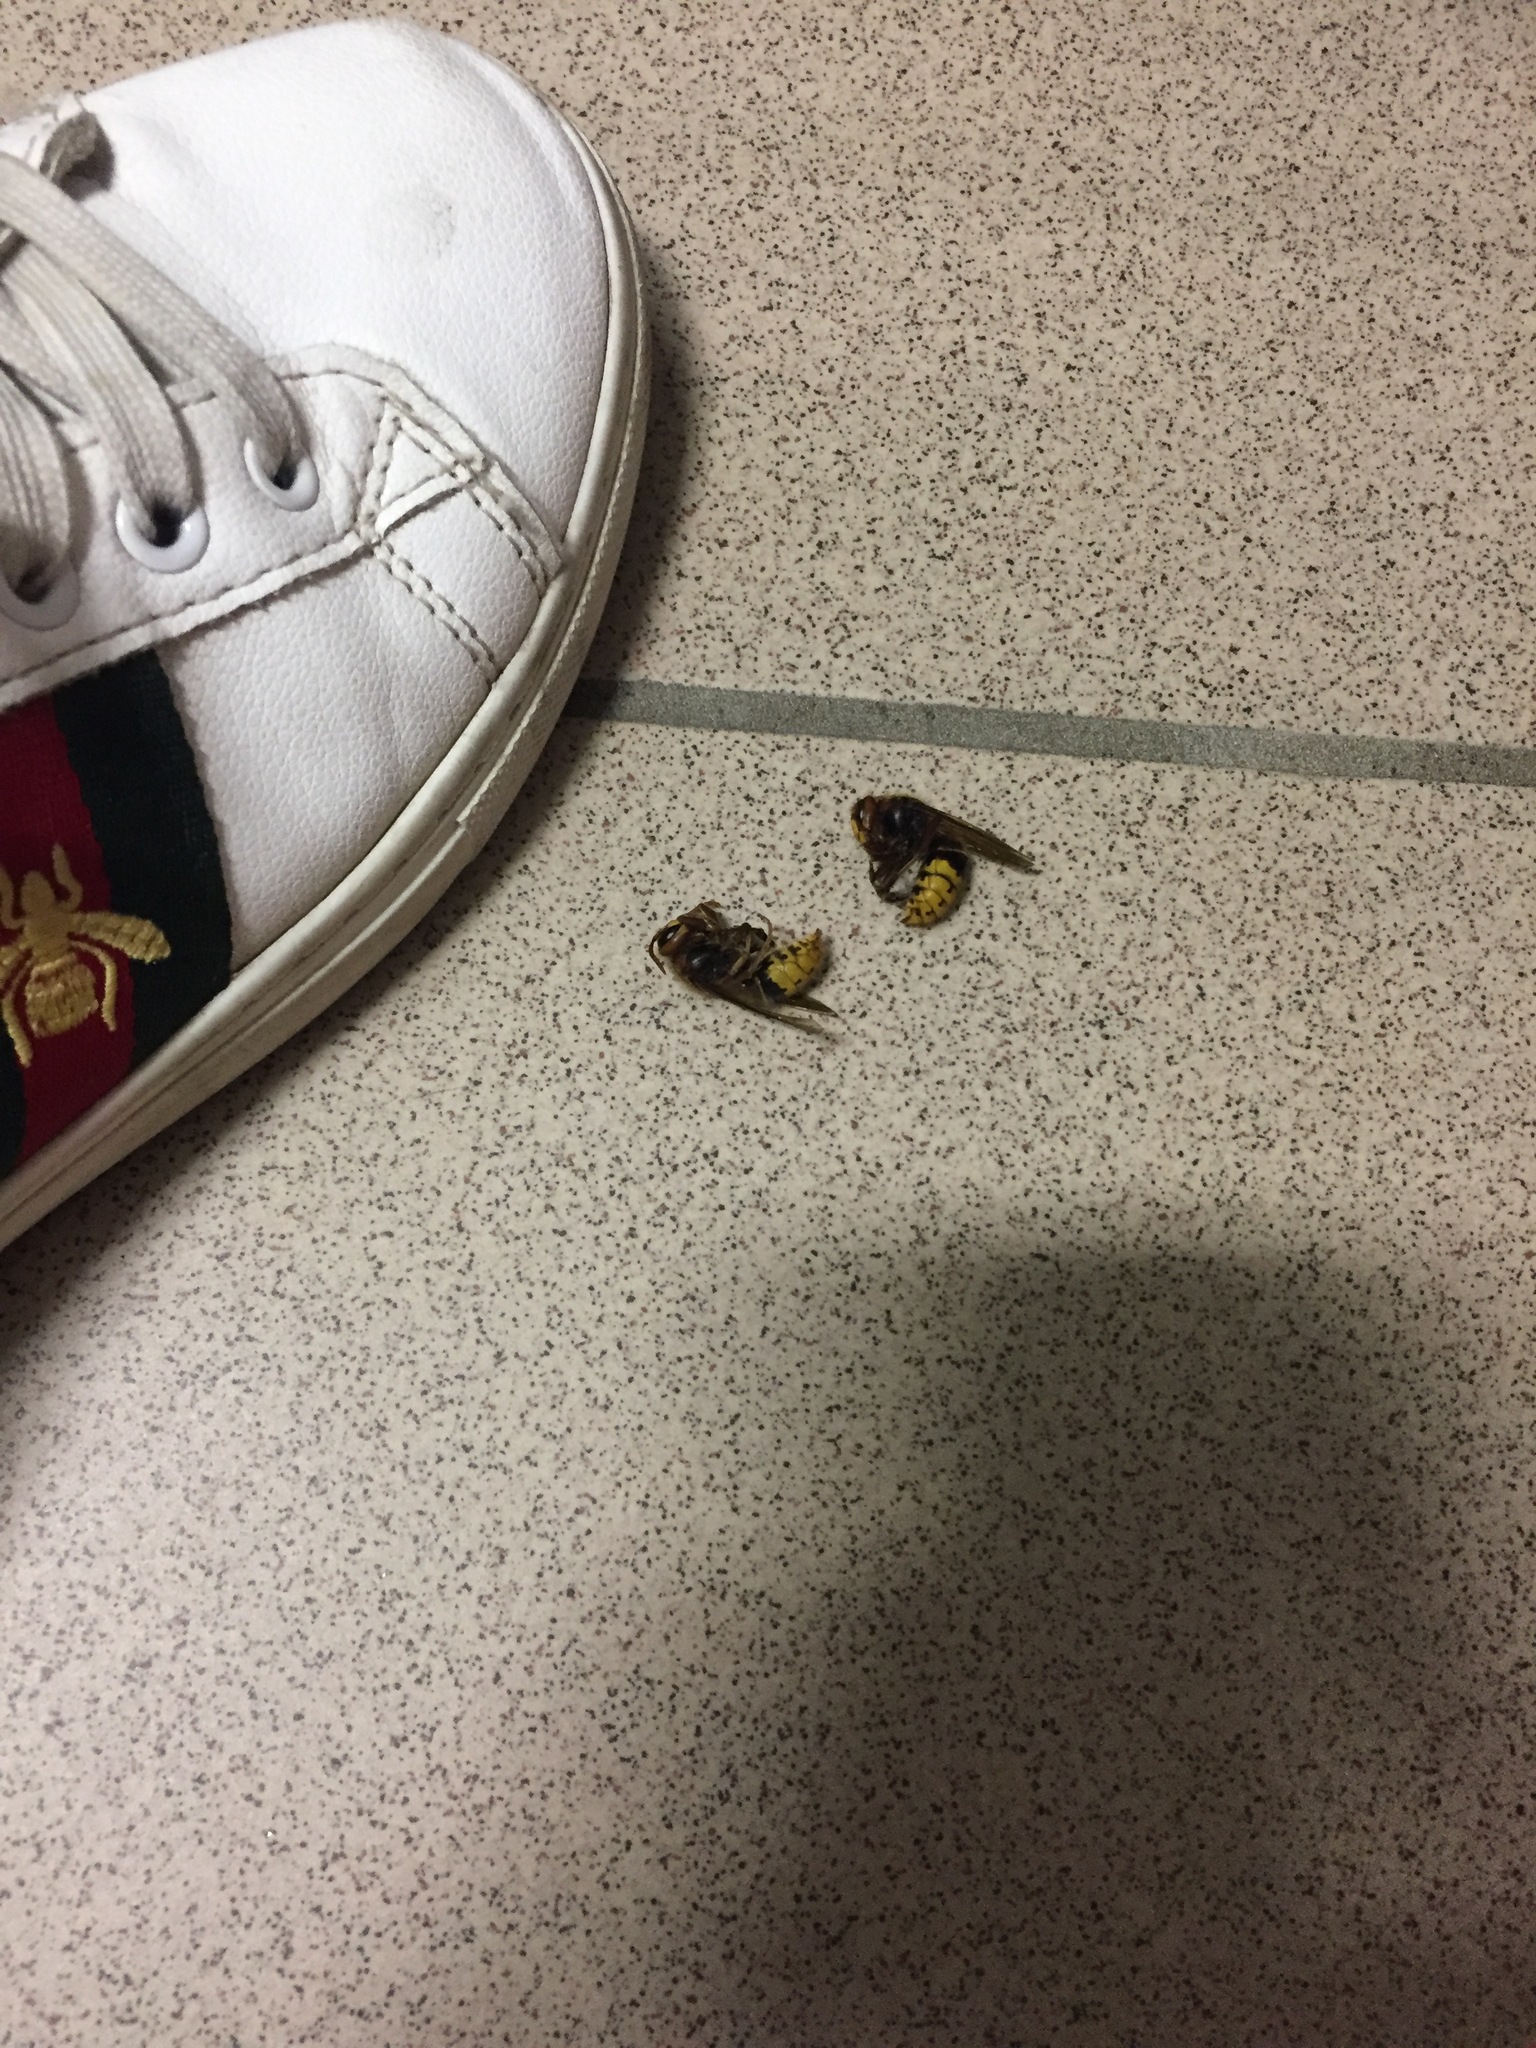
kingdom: Animalia
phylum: Arthropoda
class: Insecta
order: Hymenoptera
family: Vespidae
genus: Vespa
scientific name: Vespa crabro
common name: Hornet
